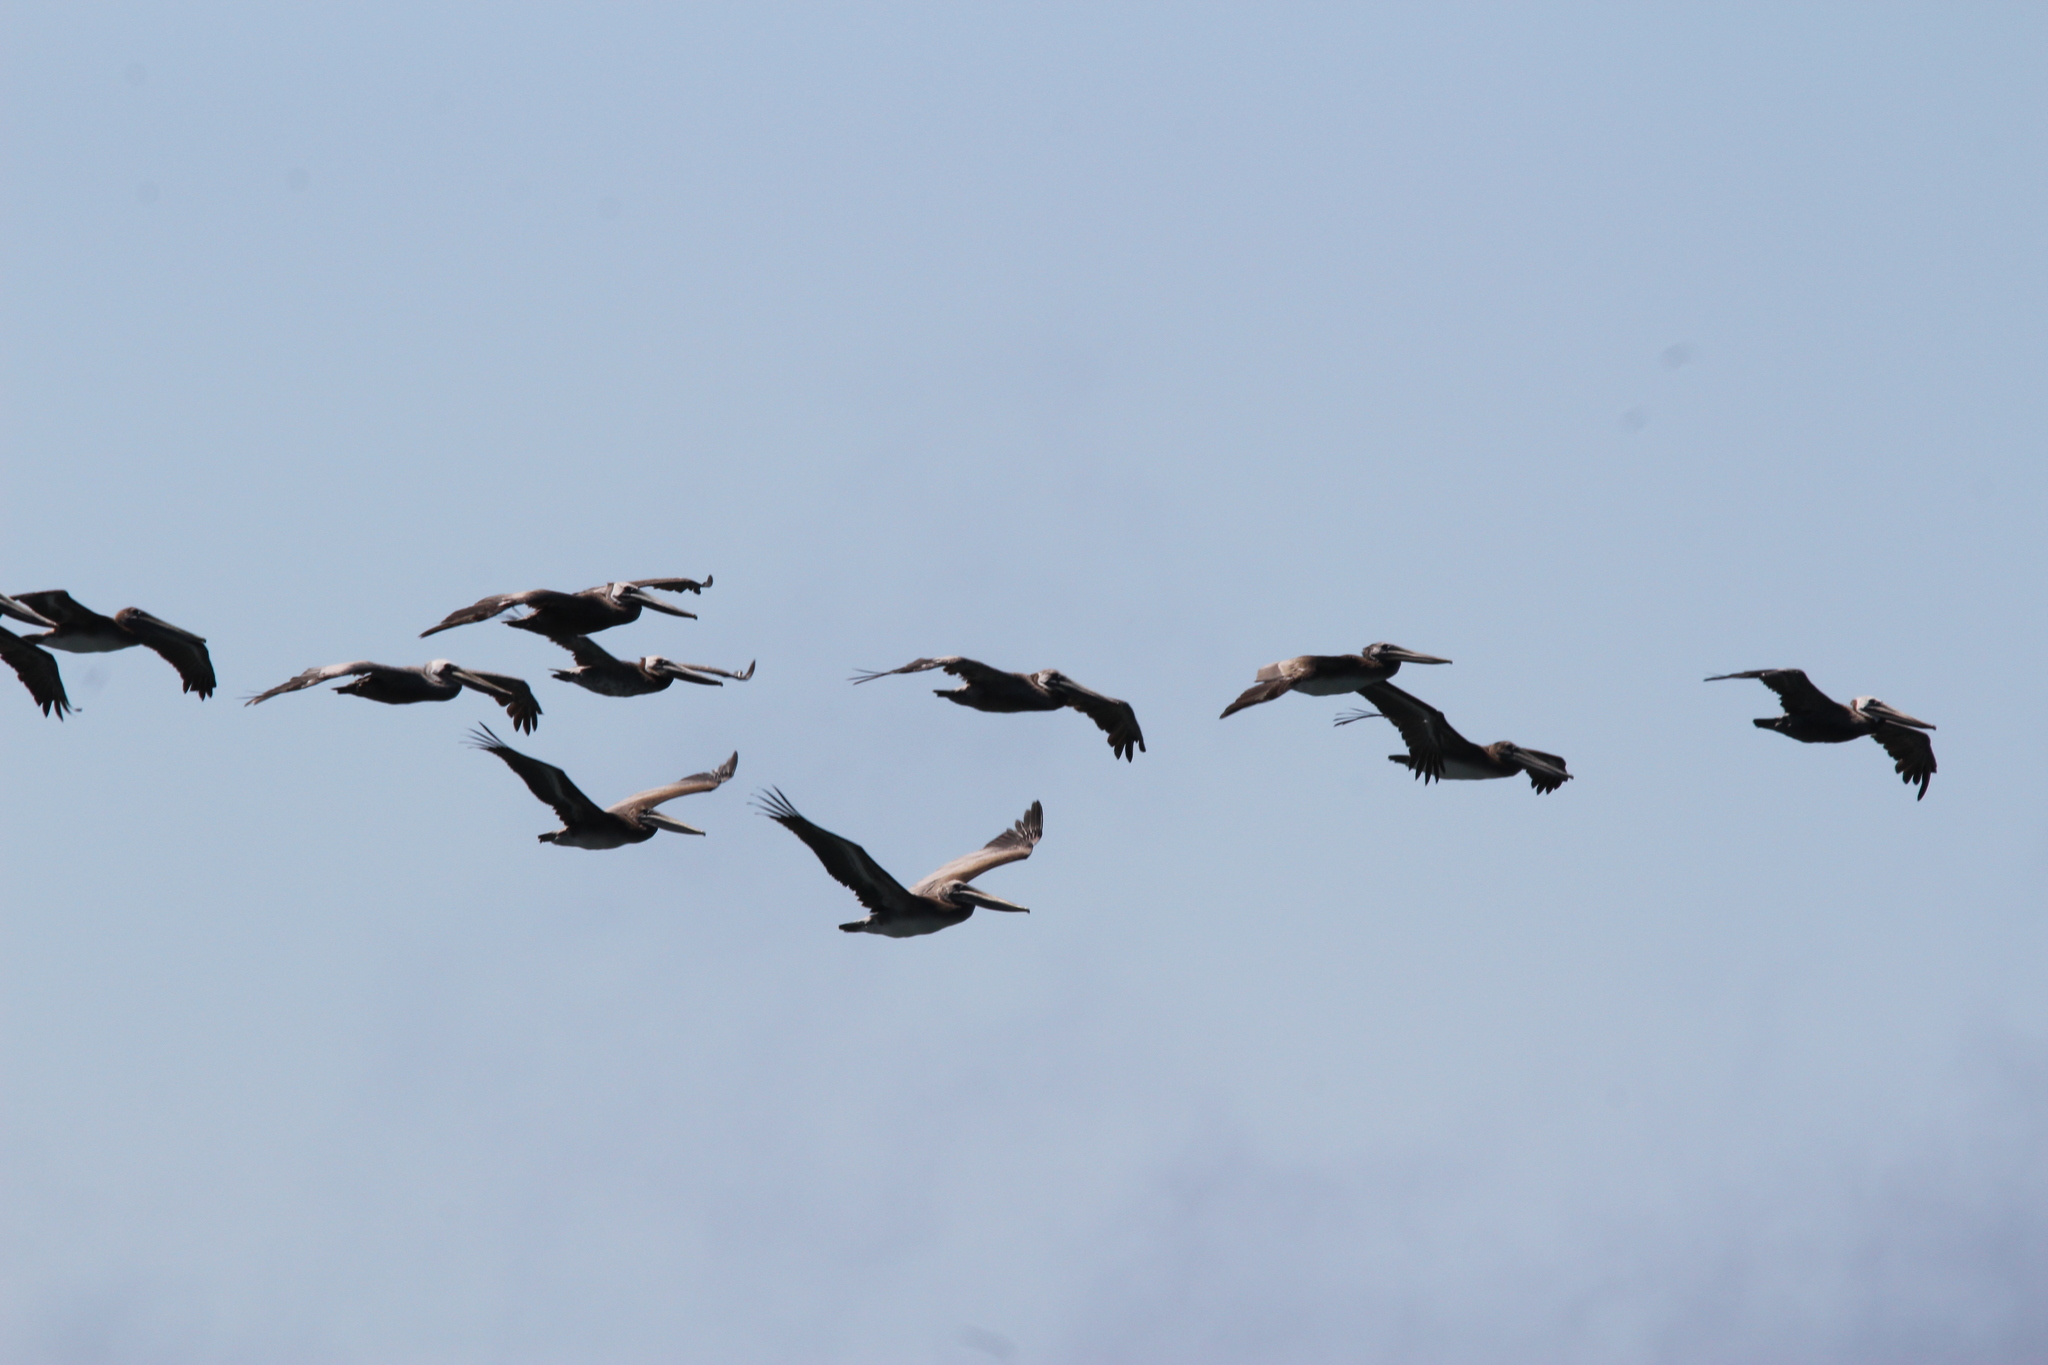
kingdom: Animalia
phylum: Chordata
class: Aves
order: Pelecaniformes
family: Pelecanidae
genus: Pelecanus
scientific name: Pelecanus occidentalis
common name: Brown pelican
